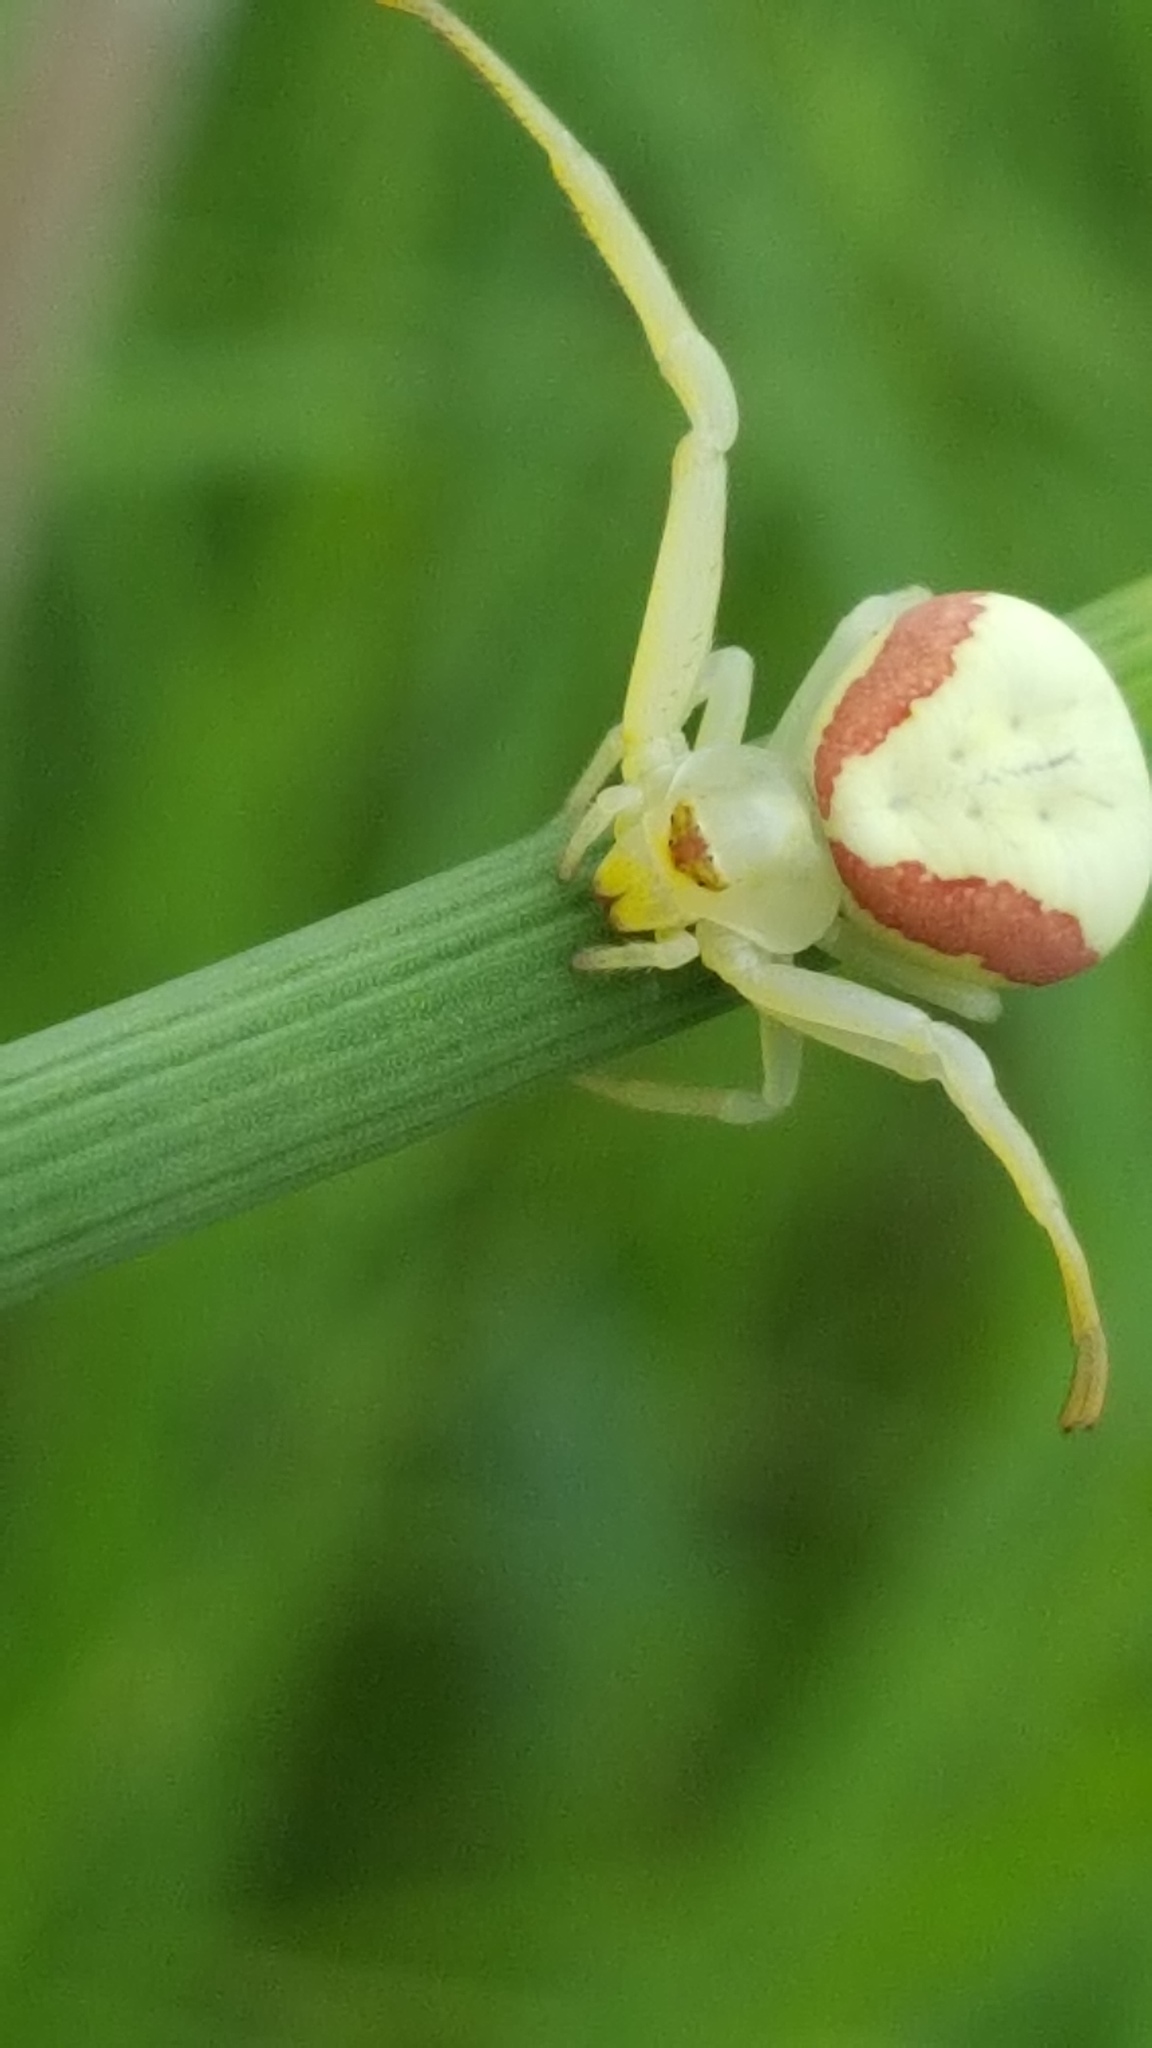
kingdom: Animalia
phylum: Arthropoda
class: Arachnida
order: Araneae
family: Thomisidae
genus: Misumena
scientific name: Misumena vatia
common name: Goldenrod crab spider
